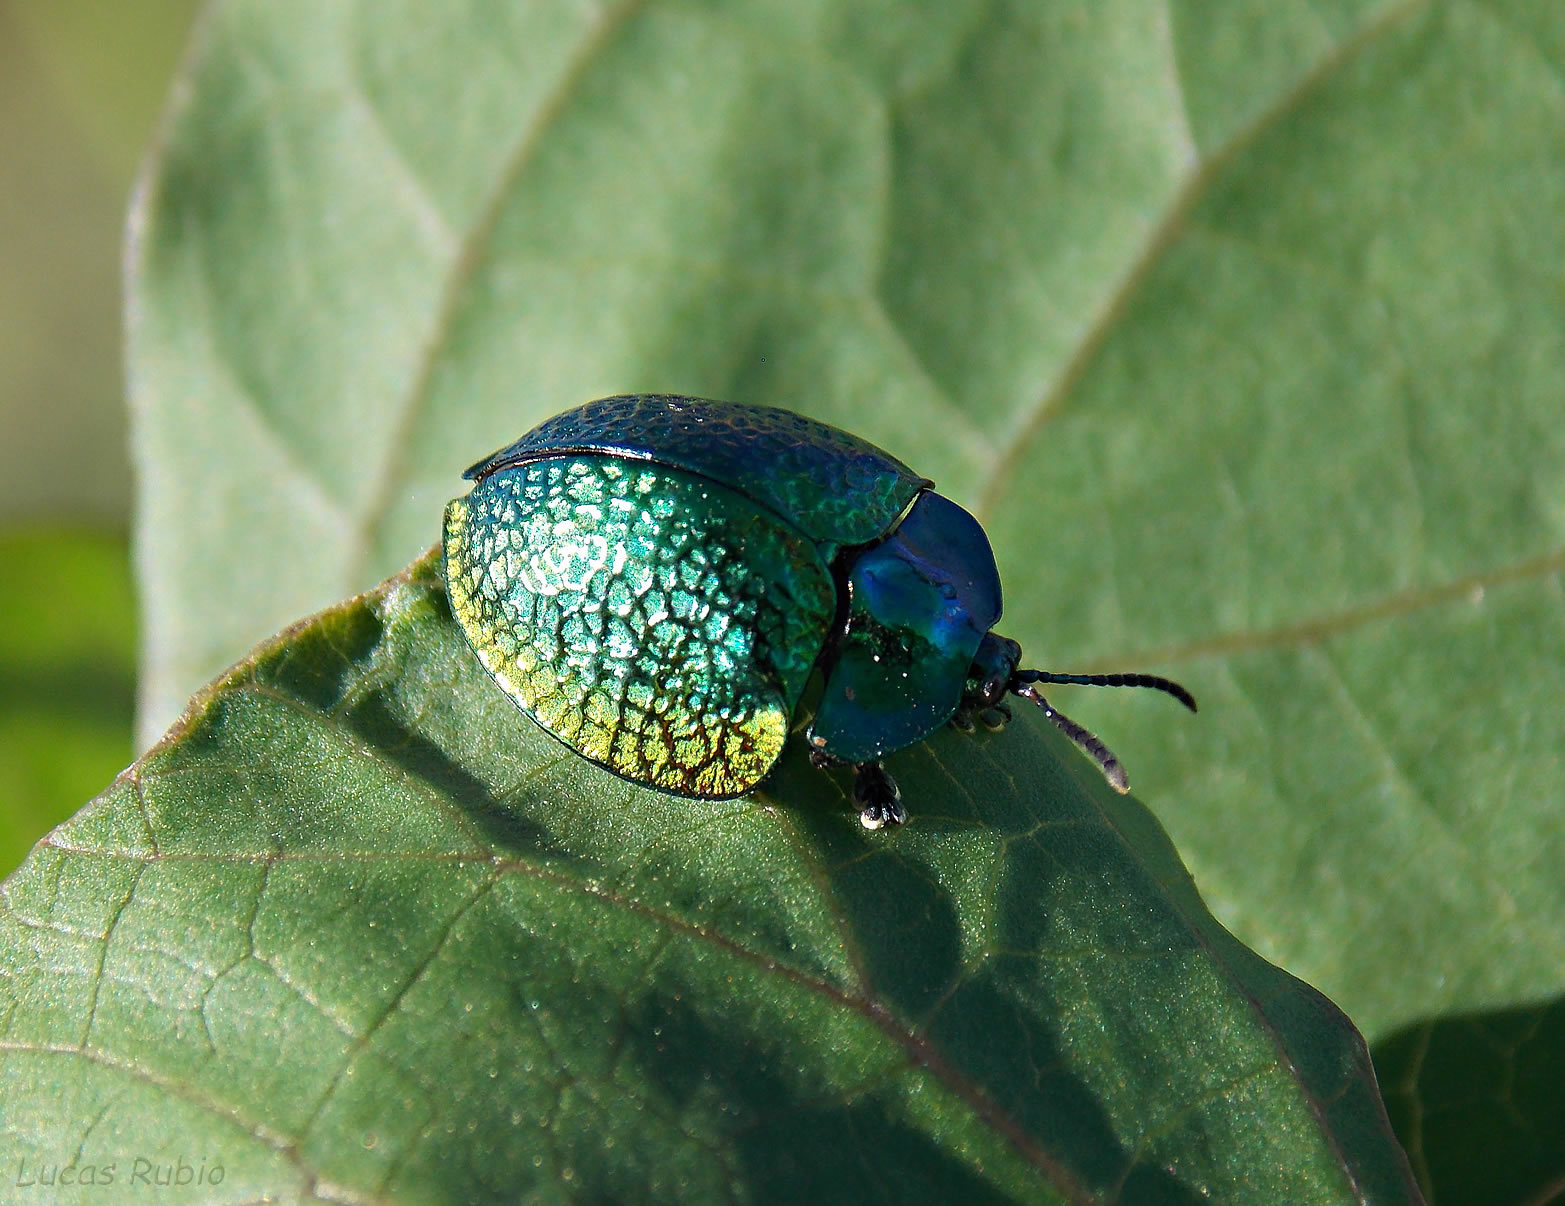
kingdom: Animalia
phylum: Arthropoda
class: Insecta
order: Coleoptera
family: Chrysomelidae
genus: Stolas
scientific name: Stolas festiva
